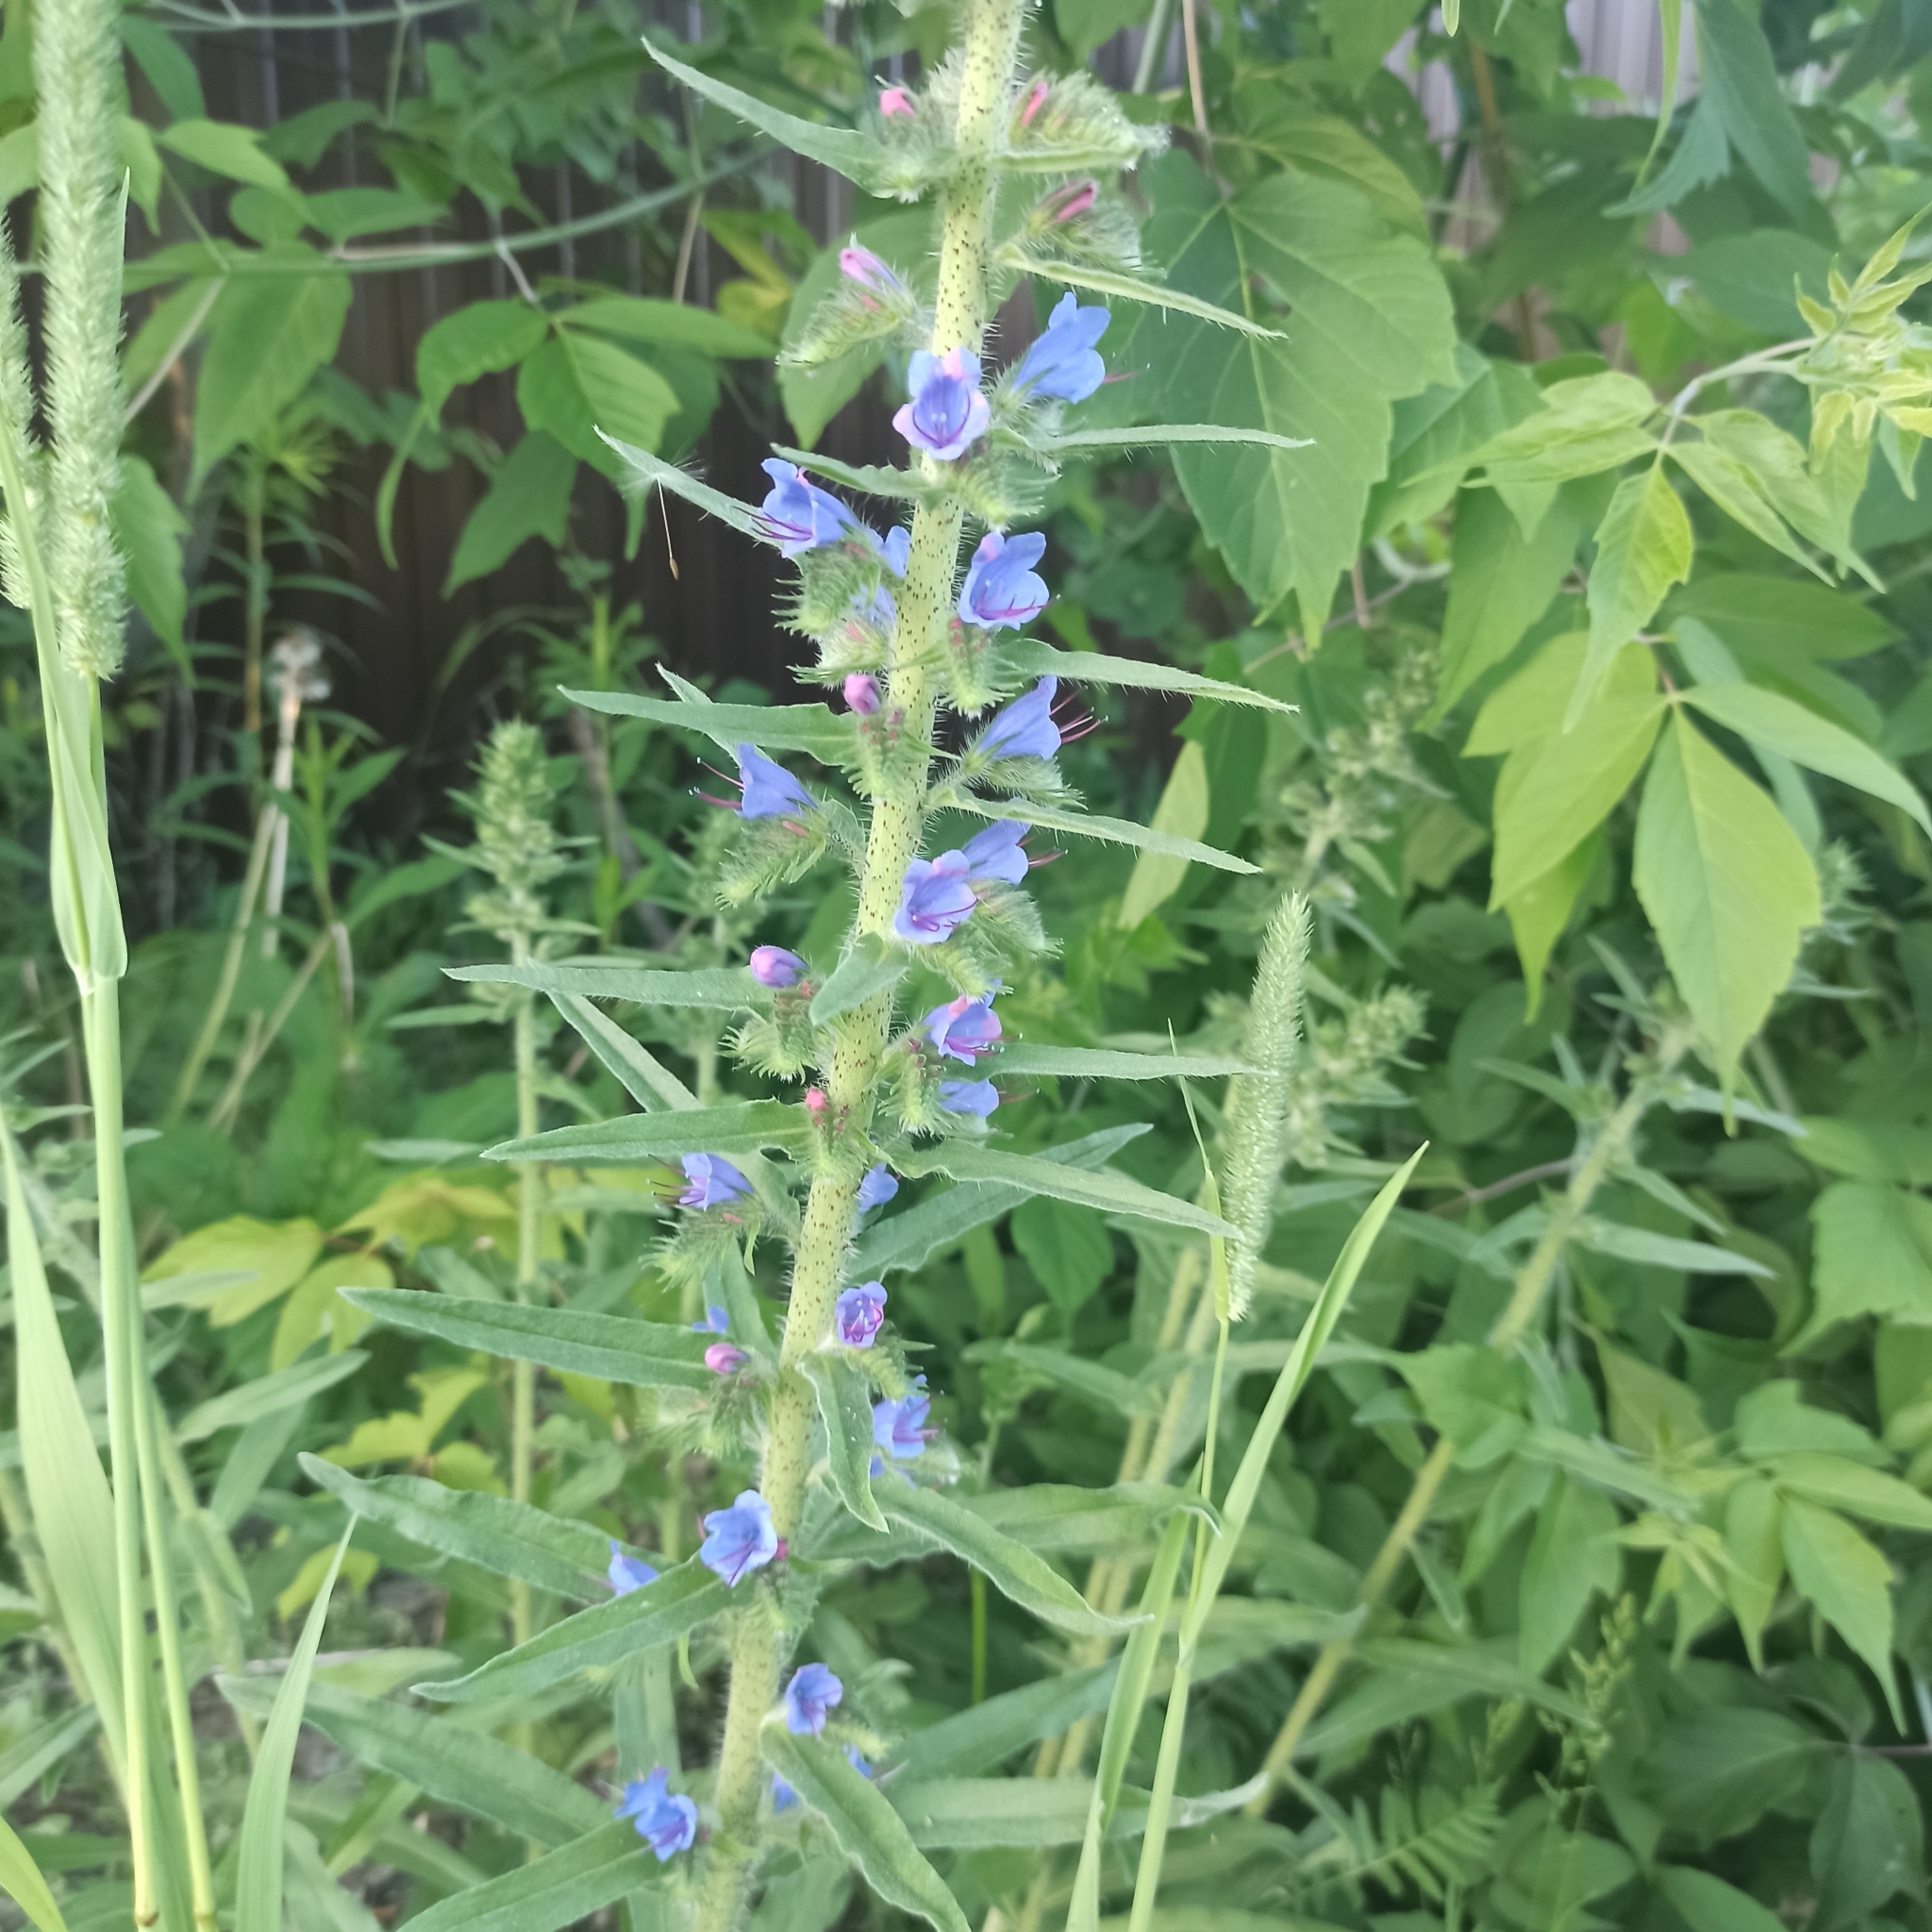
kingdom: Plantae
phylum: Tracheophyta
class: Magnoliopsida
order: Boraginales
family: Boraginaceae
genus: Echium
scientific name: Echium vulgare
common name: Common viper's bugloss
